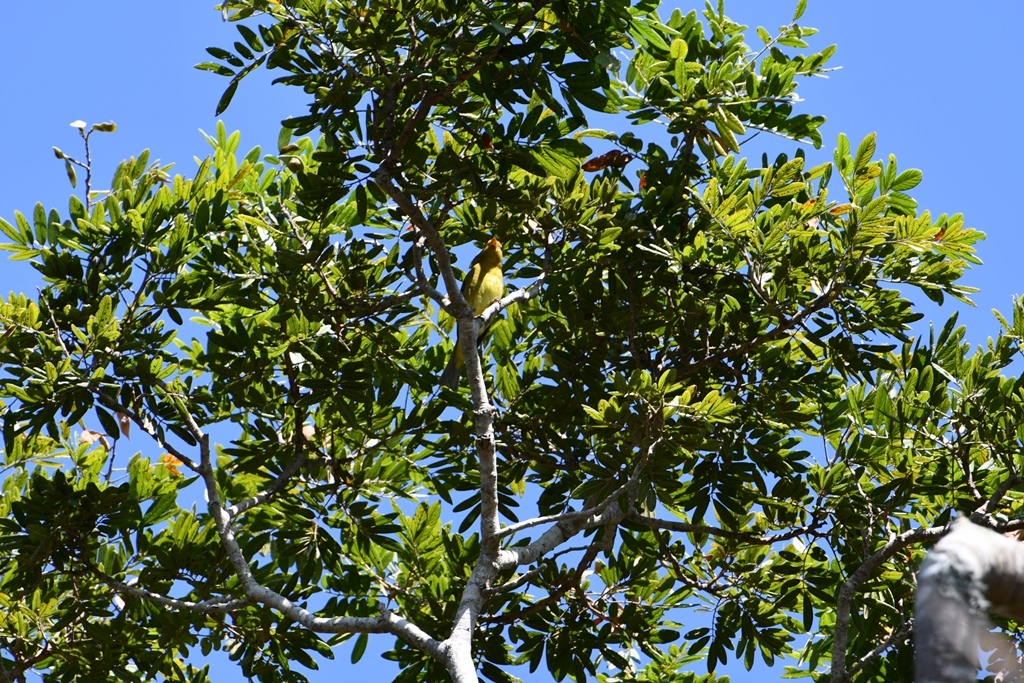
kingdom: Animalia
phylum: Chordata
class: Aves
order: Passeriformes
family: Cardinalidae
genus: Piranga
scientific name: Piranga ludoviciana
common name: Western tanager
